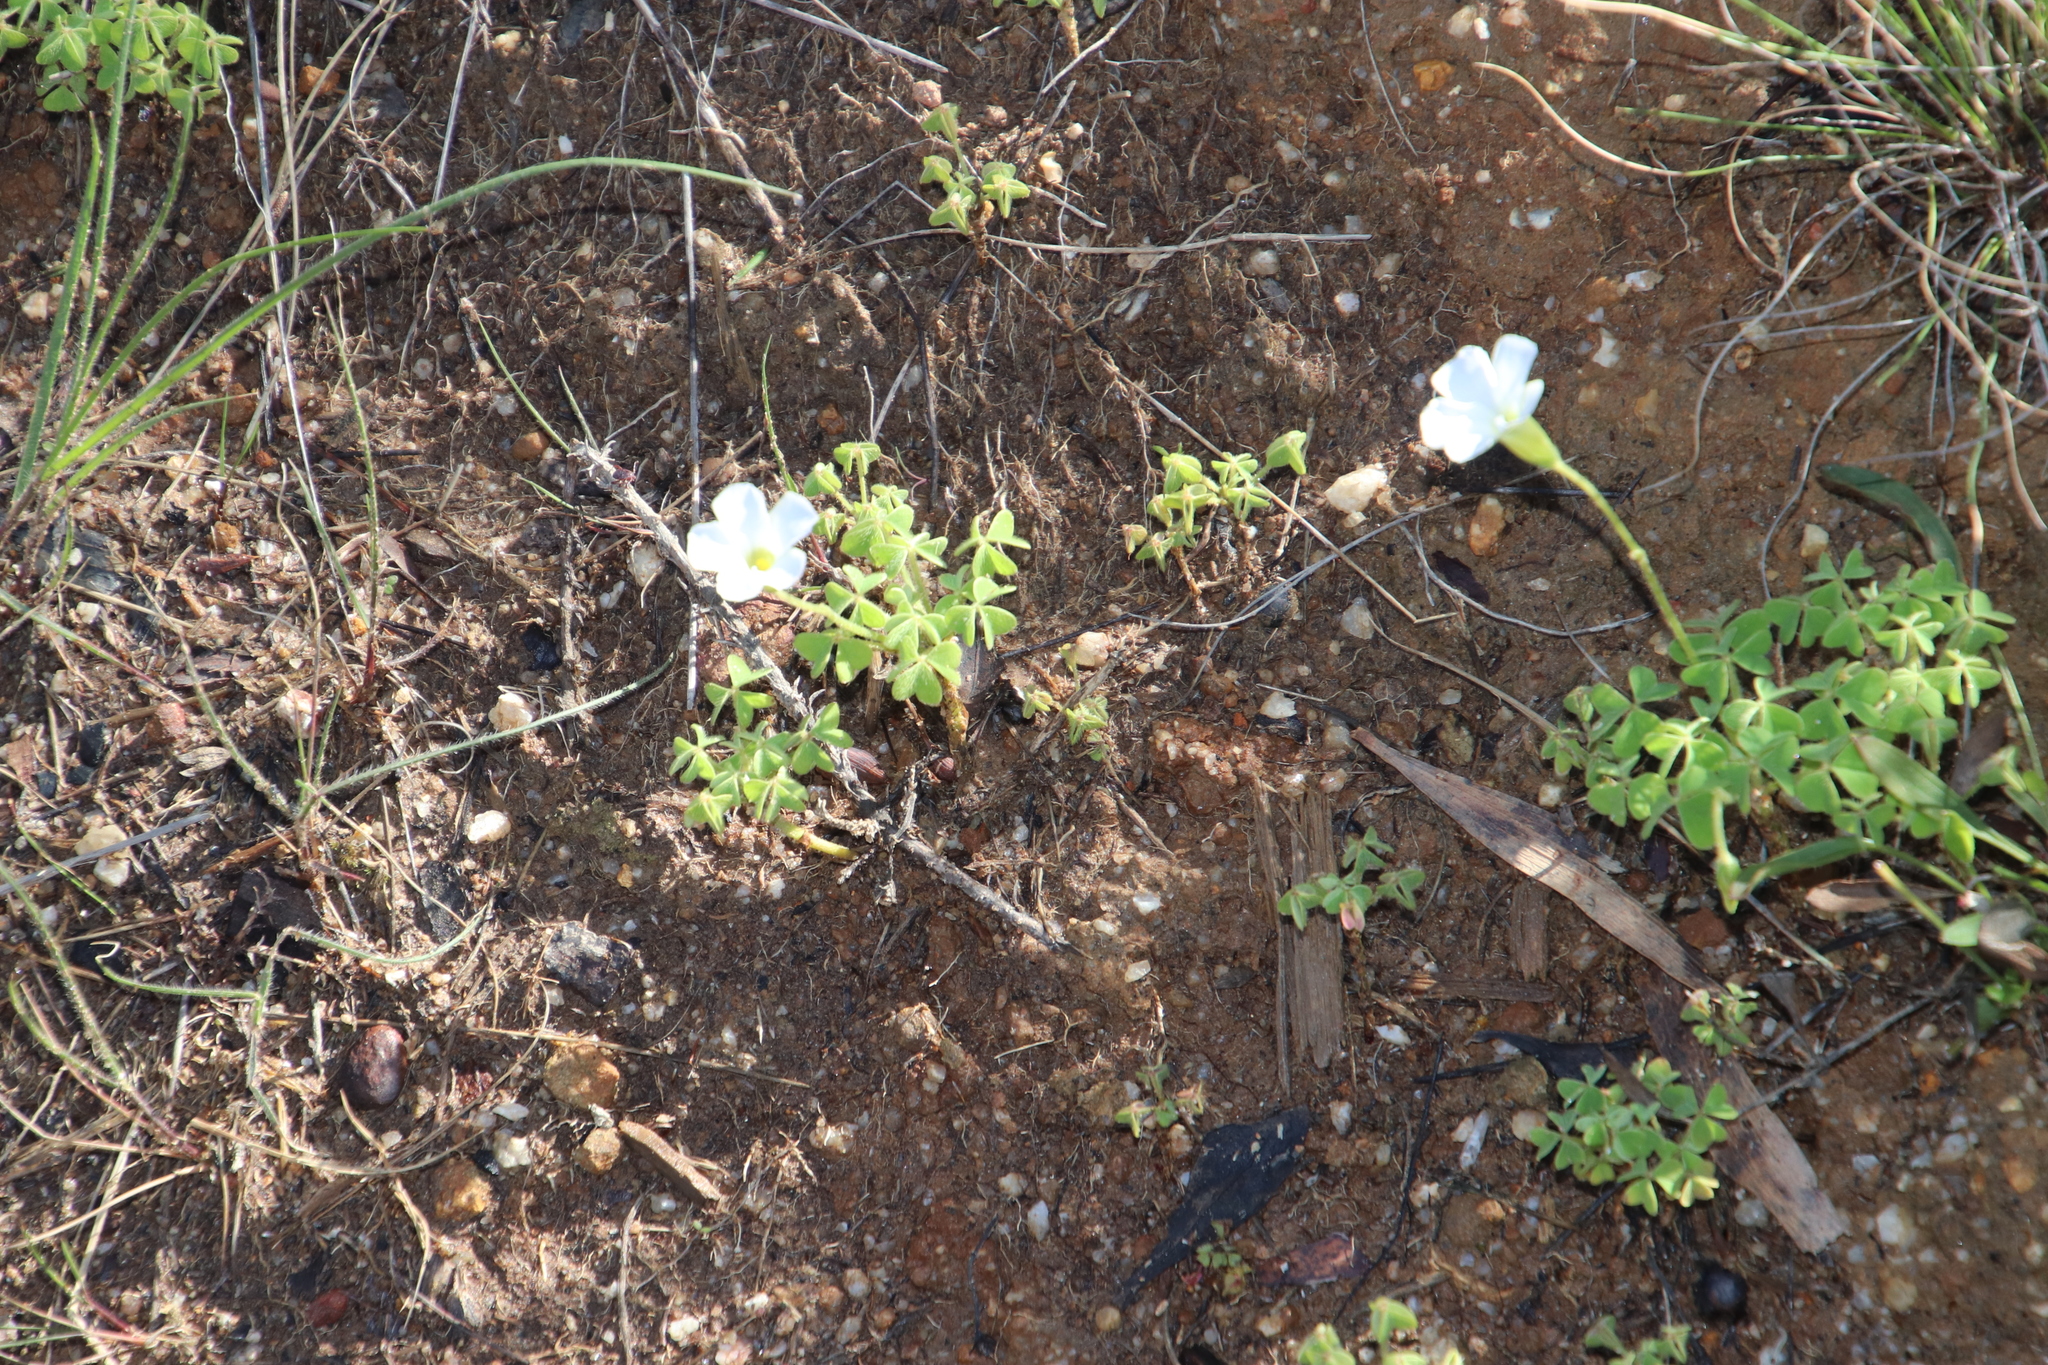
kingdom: Plantae
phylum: Tracheophyta
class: Magnoliopsida
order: Oxalidales
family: Oxalidaceae
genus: Oxalis
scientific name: Oxalis lanata
